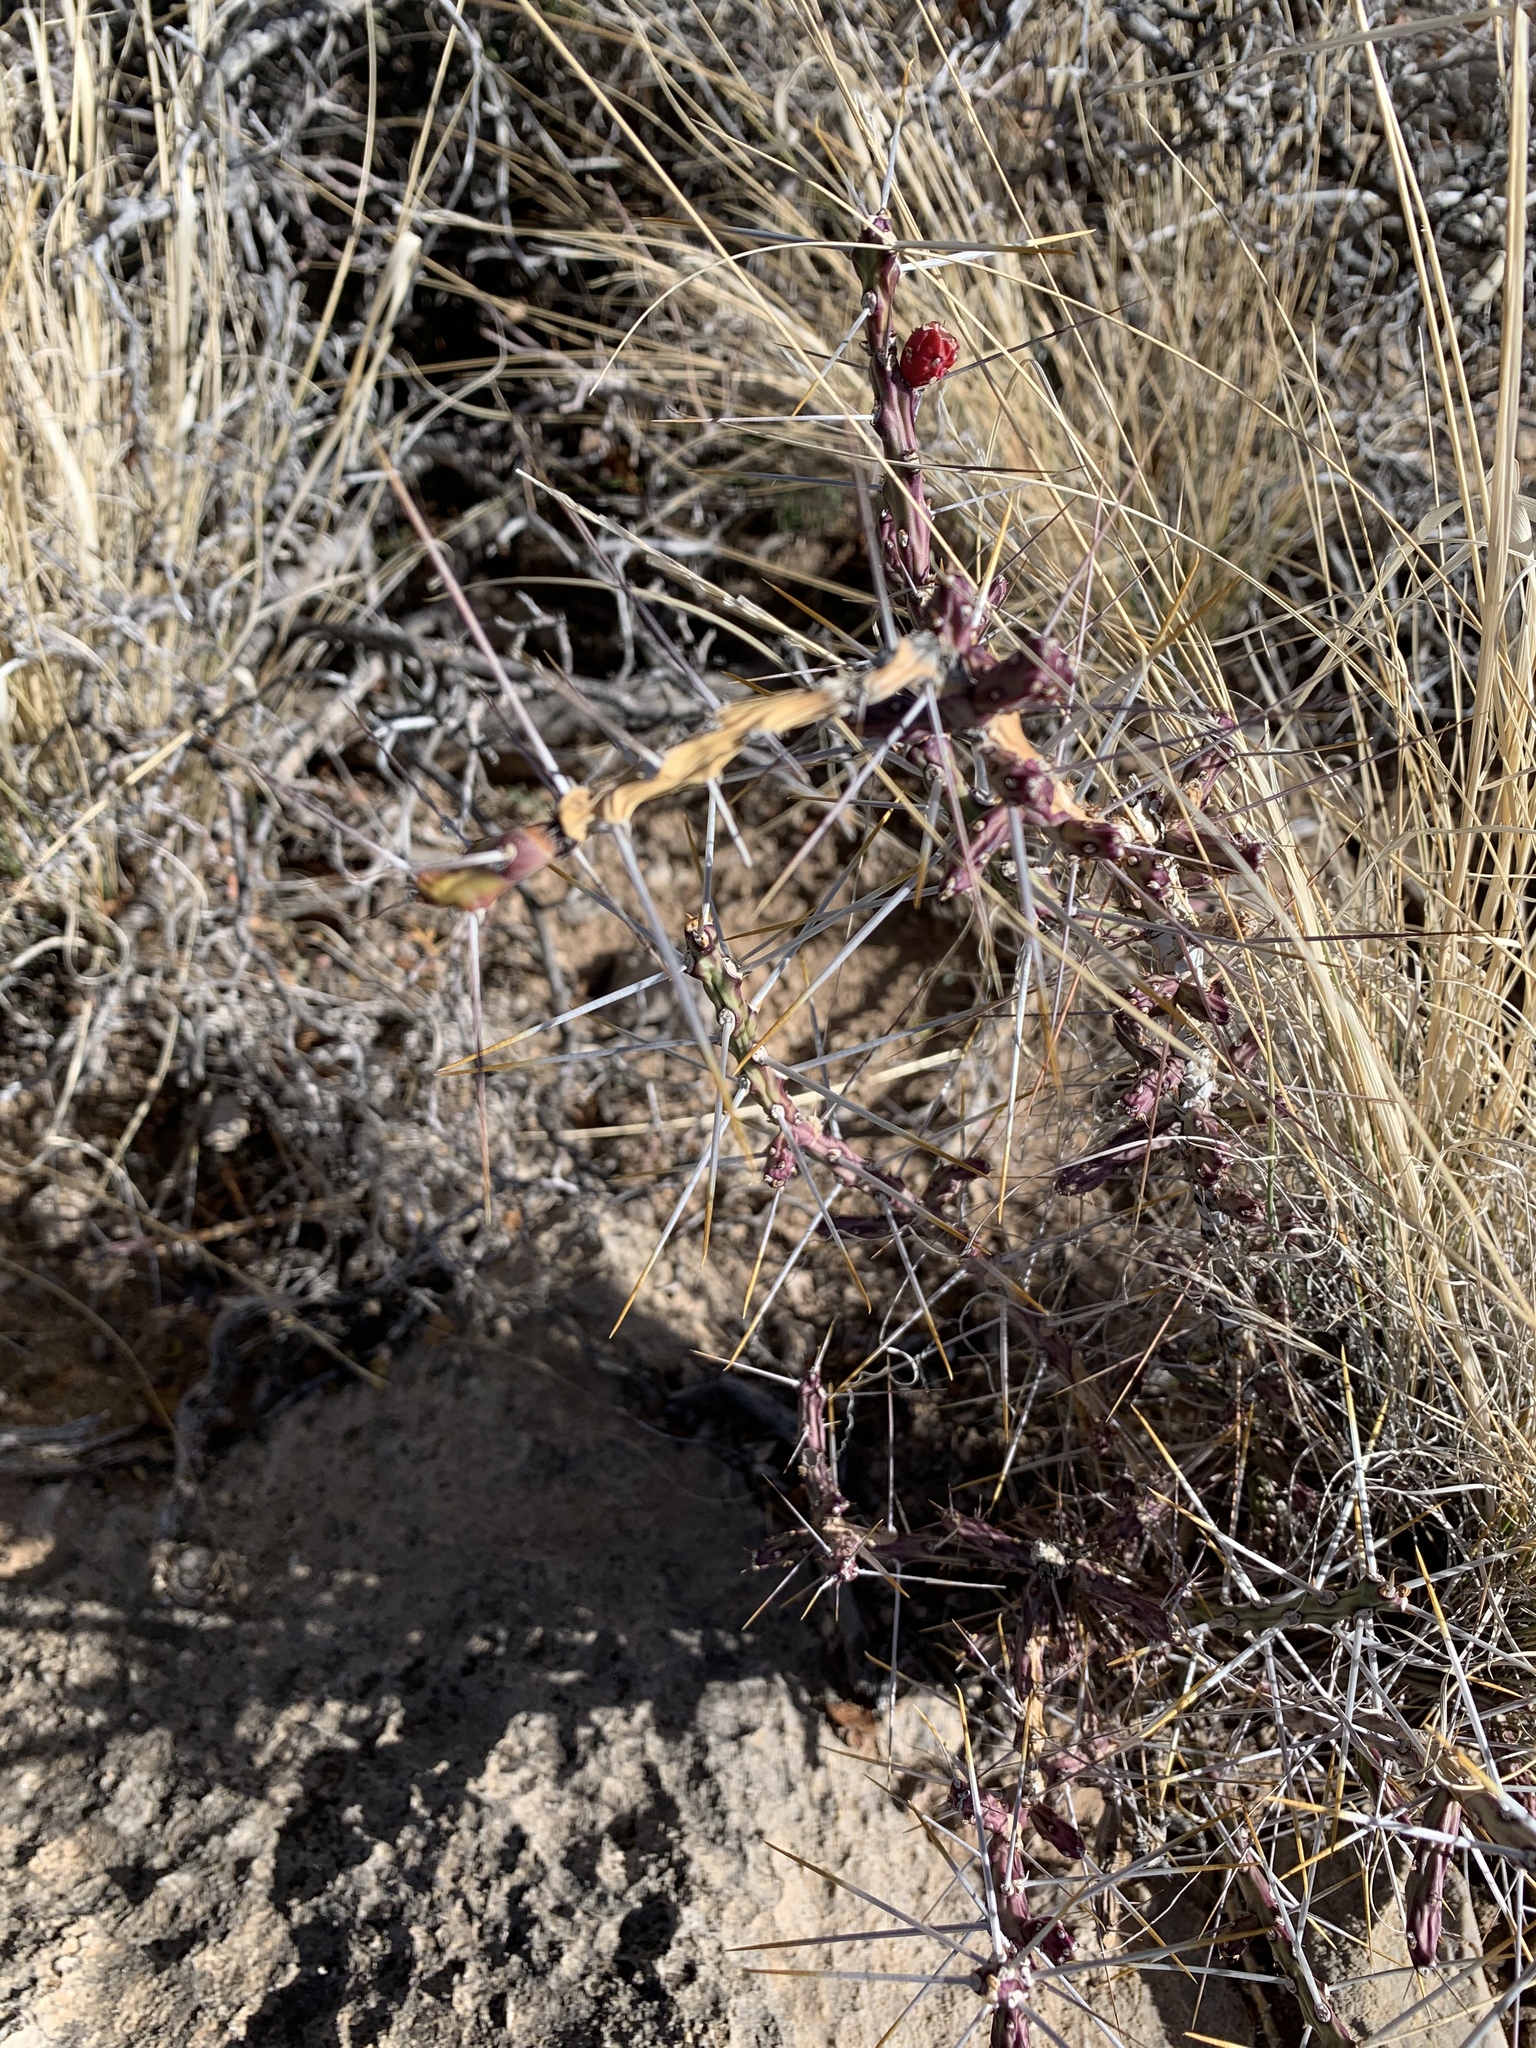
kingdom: Plantae
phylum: Tracheophyta
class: Magnoliopsida
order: Caryophyllales
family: Cactaceae
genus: Cylindropuntia
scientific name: Cylindropuntia leptocaulis
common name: Christmas cactus
